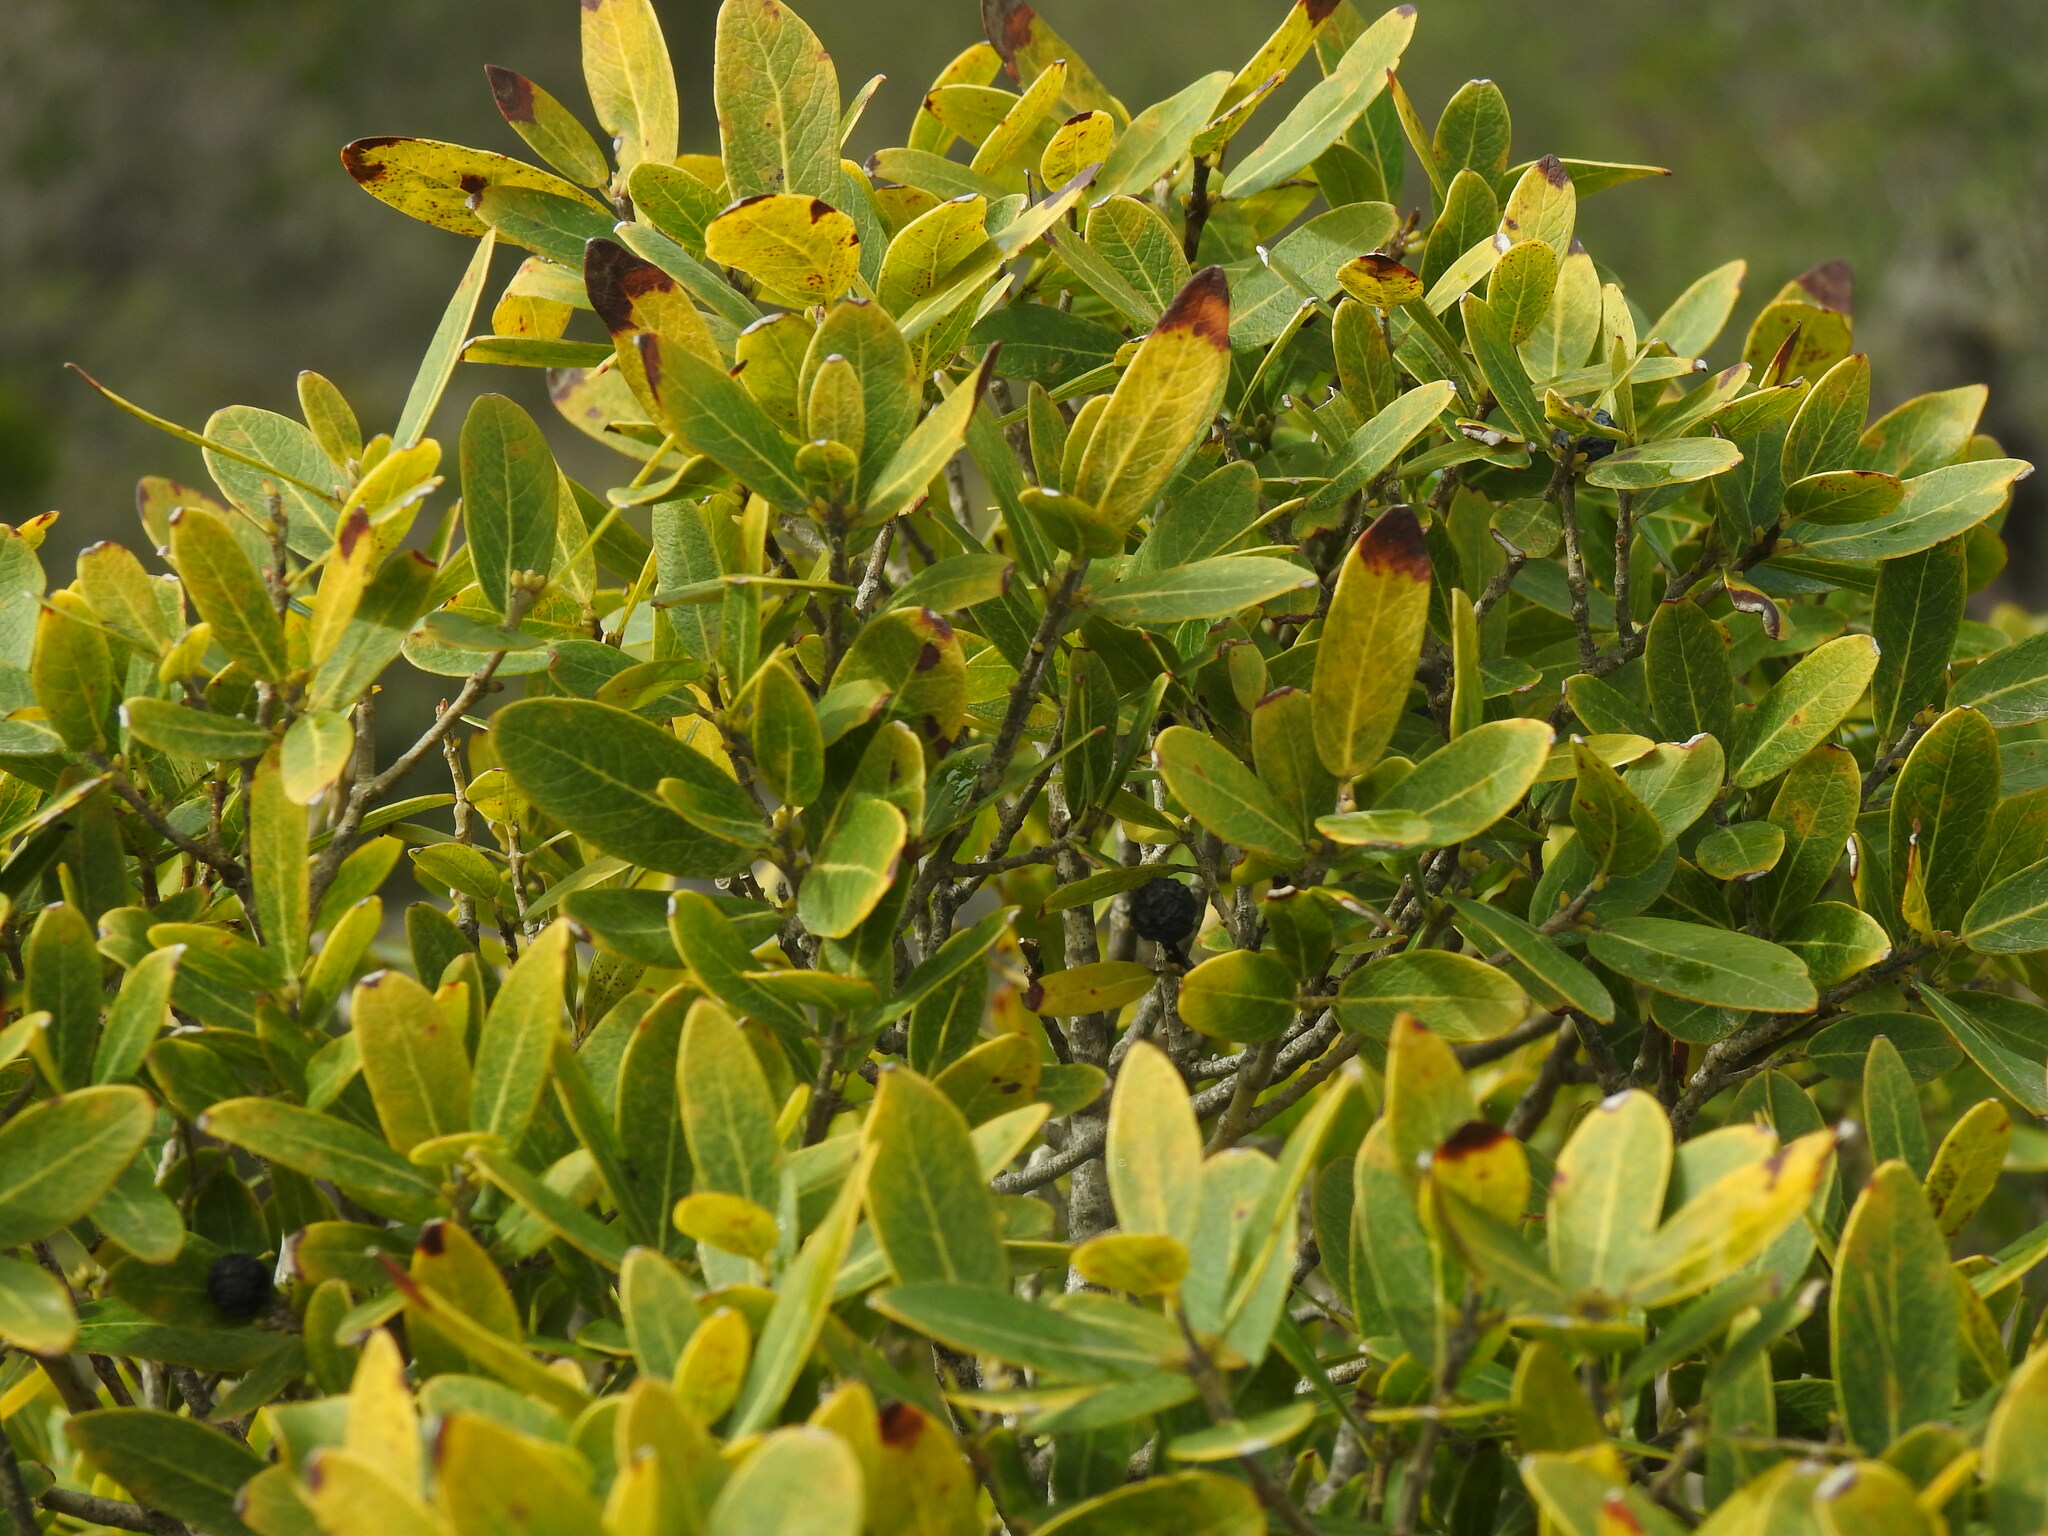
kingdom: Plantae
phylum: Tracheophyta
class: Magnoliopsida
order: Lamiales
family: Oleaceae
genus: Phillyrea
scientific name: Phillyrea latifolia
